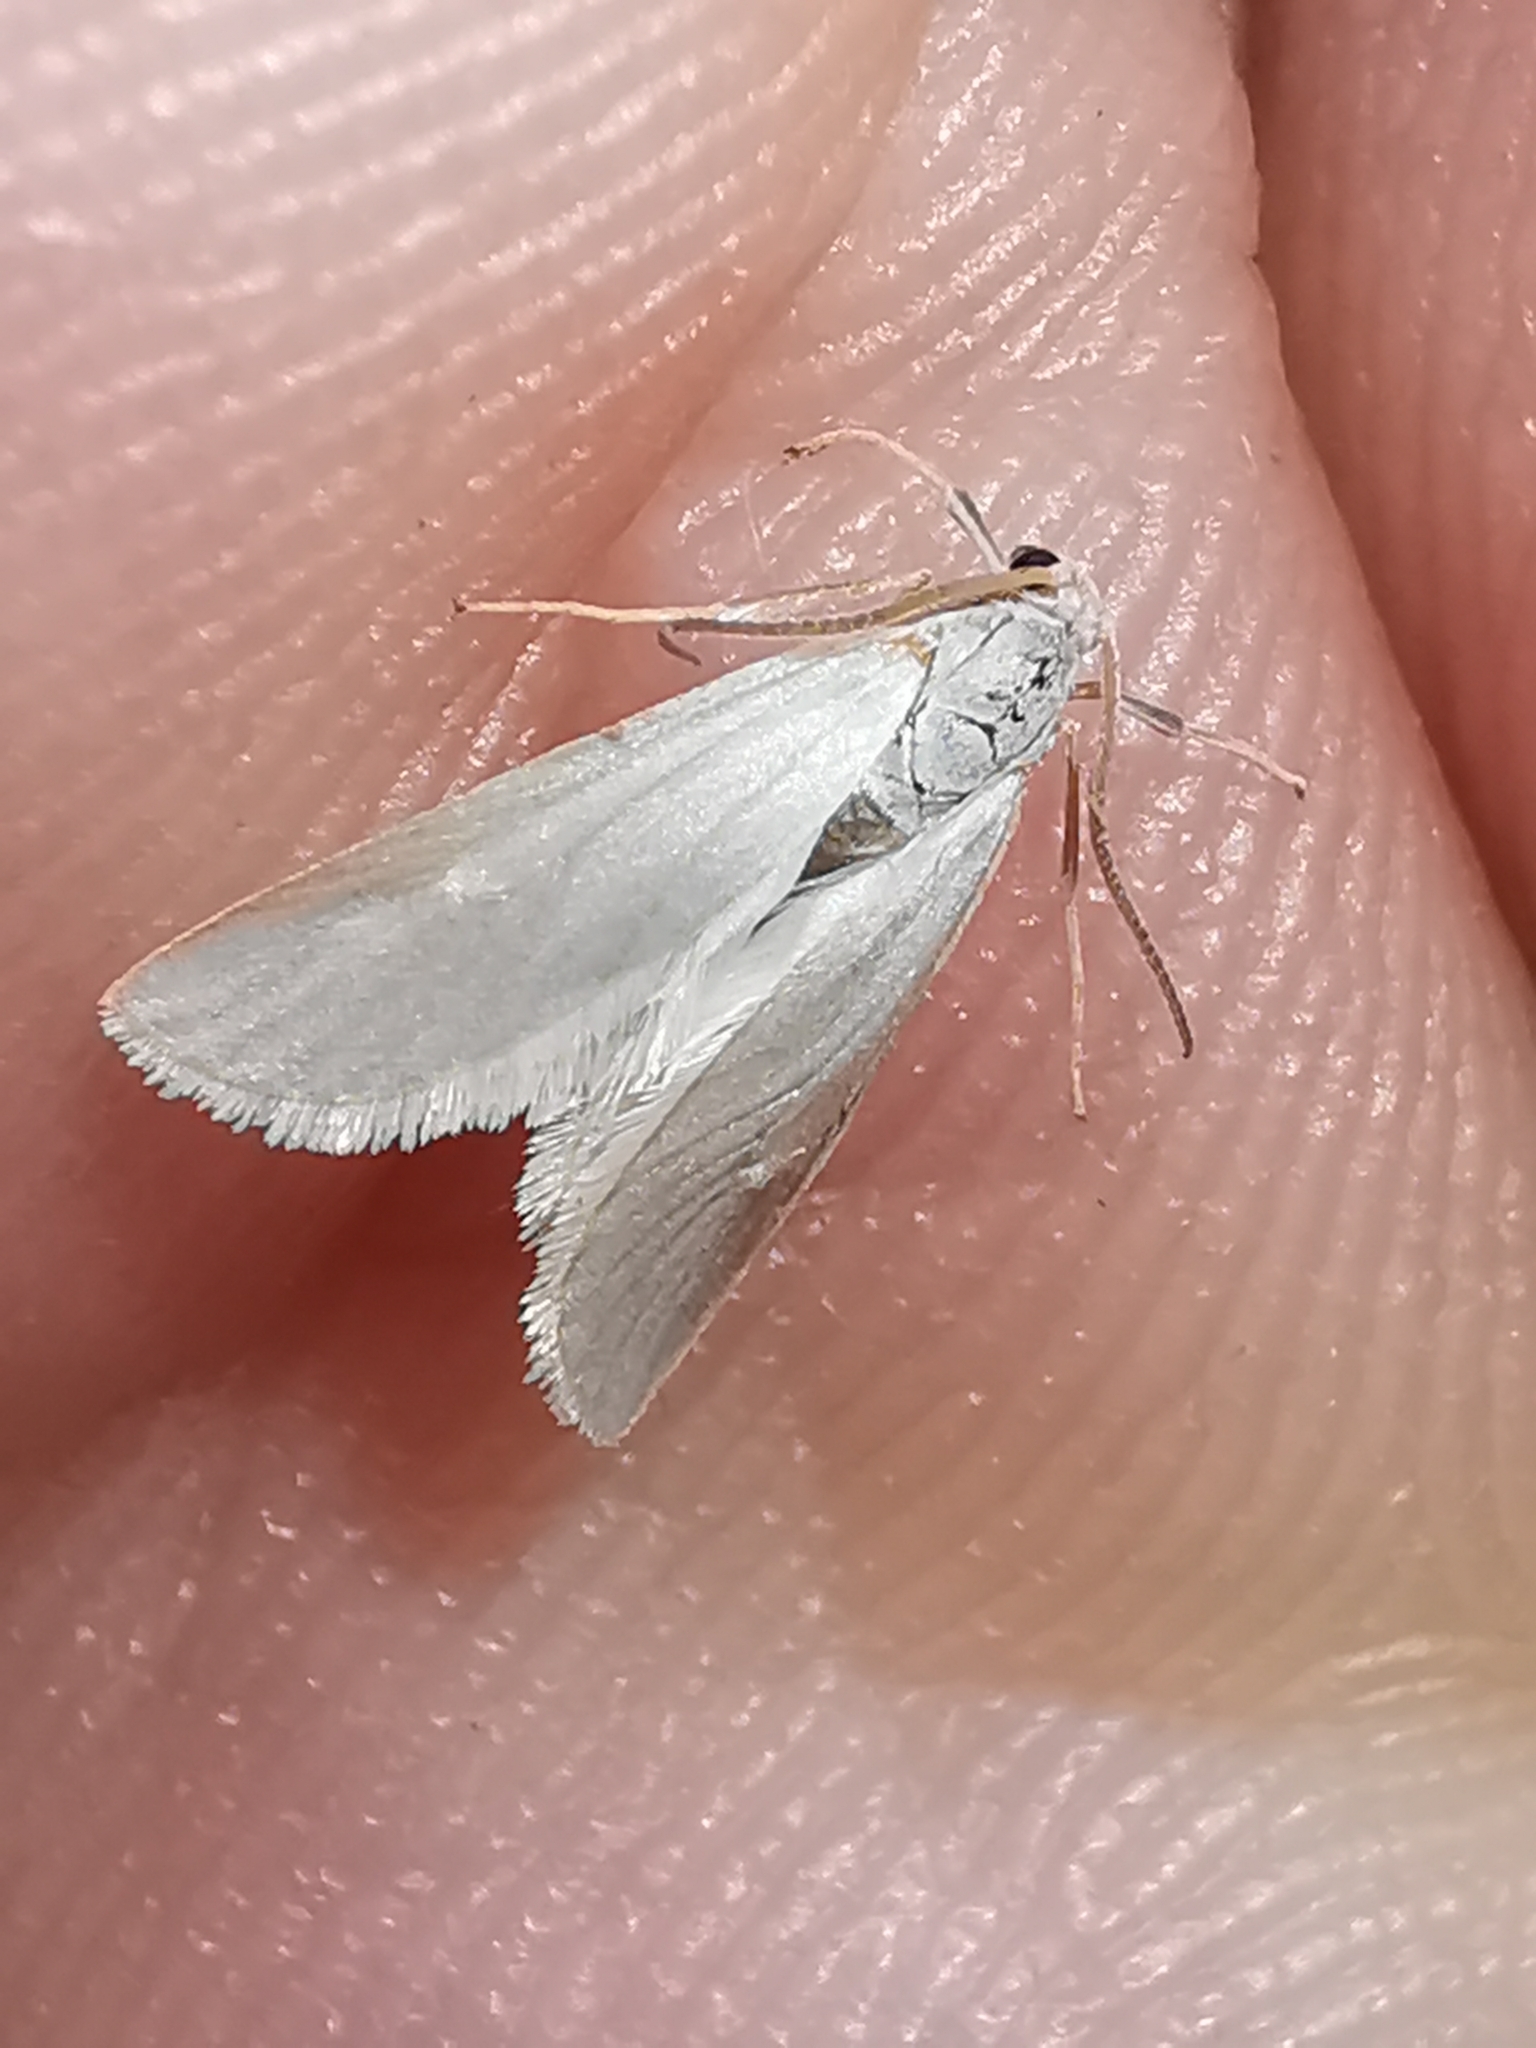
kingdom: Animalia
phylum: Arthropoda
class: Insecta
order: Lepidoptera
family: Crambidae
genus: Acentria
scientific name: Acentria ephemerella
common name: European water moth
